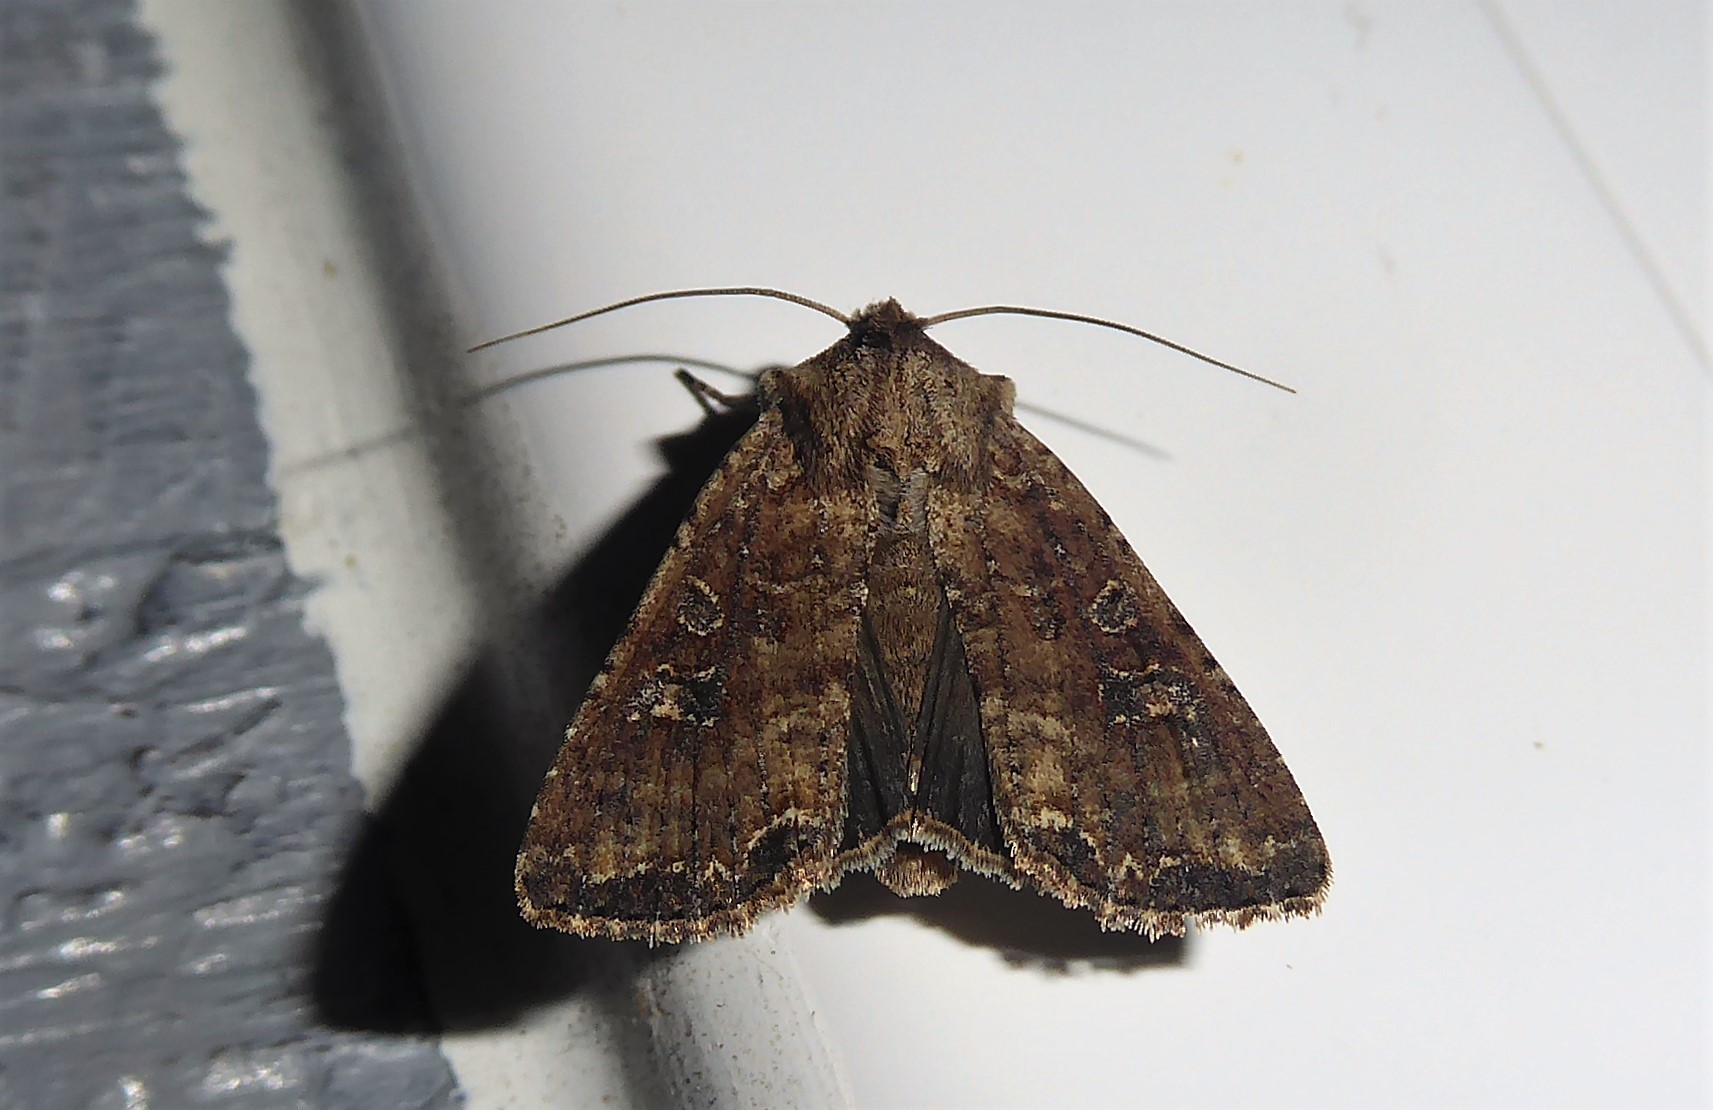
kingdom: Animalia
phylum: Arthropoda
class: Insecta
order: Lepidoptera
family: Noctuidae
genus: Ichneutica
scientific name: Ichneutica morosa
